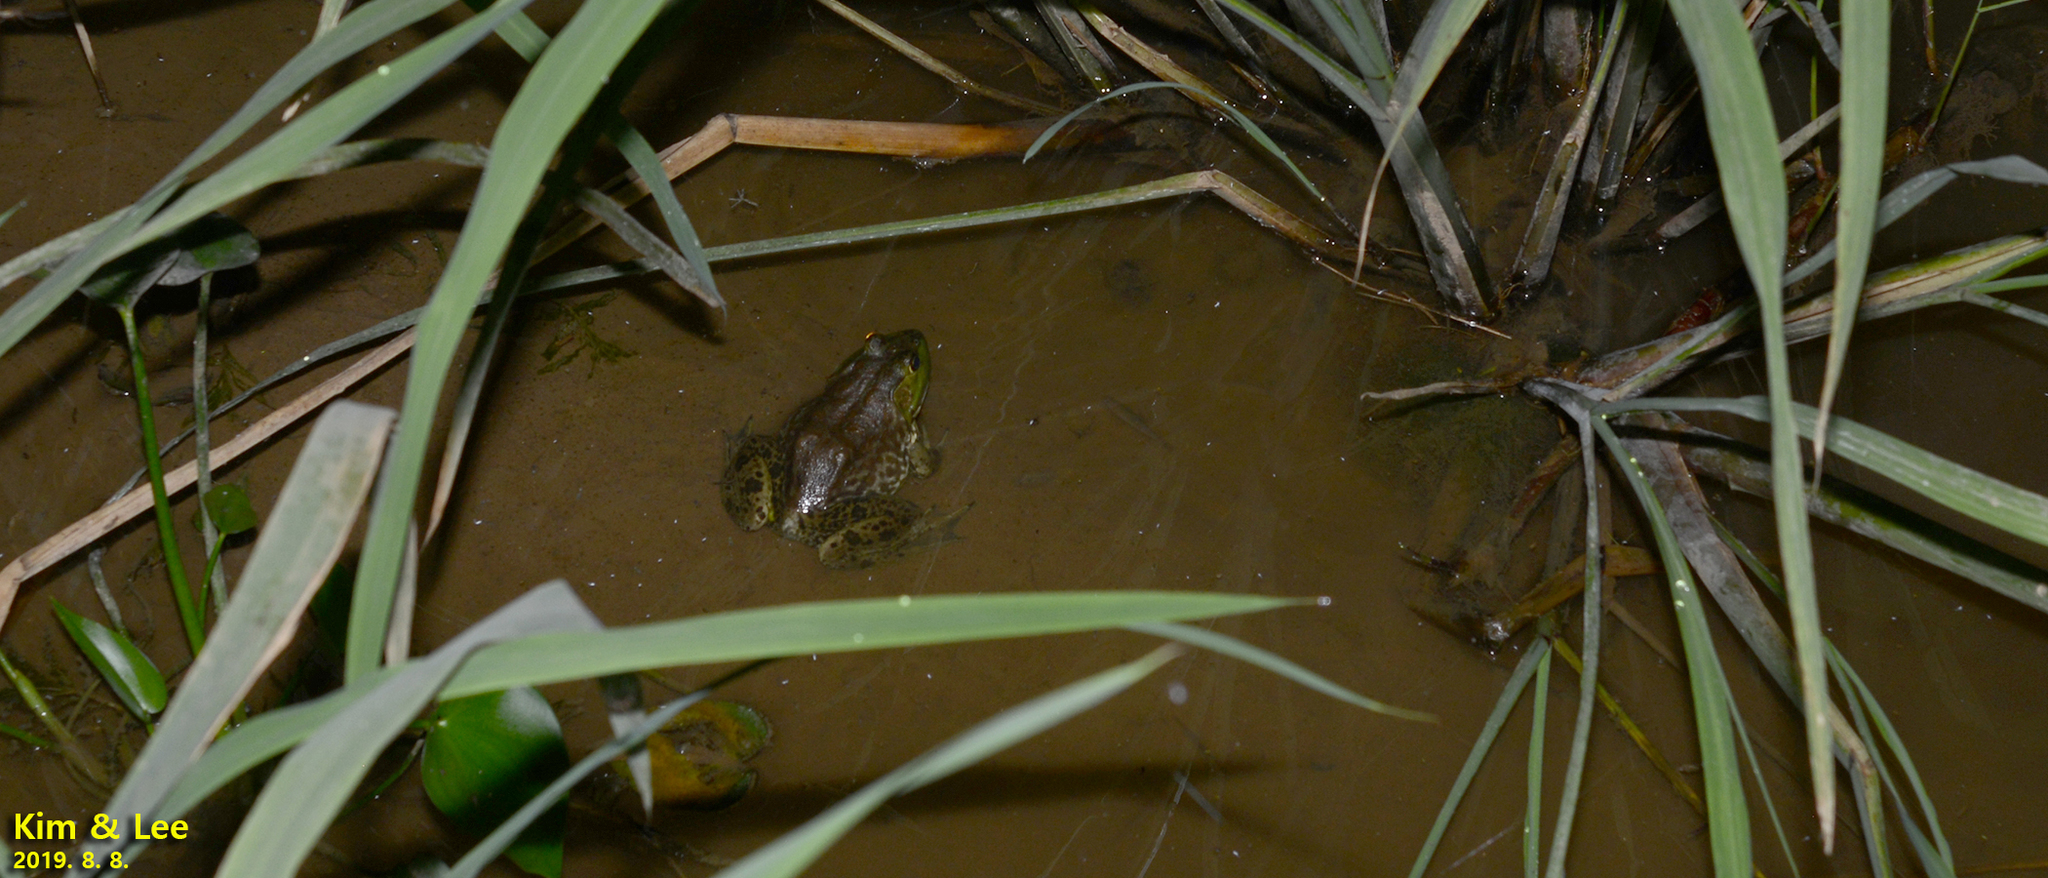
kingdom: Animalia
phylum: Chordata
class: Amphibia
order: Anura
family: Ranidae
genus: Lithobates
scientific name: Lithobates catesbeianus
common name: American bullfrog
